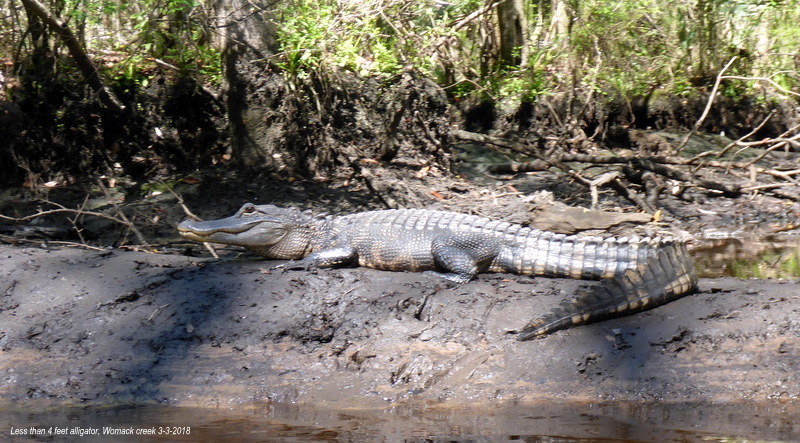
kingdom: Animalia
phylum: Chordata
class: Crocodylia
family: Alligatoridae
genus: Alligator
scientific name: Alligator mississippiensis
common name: American alligator
